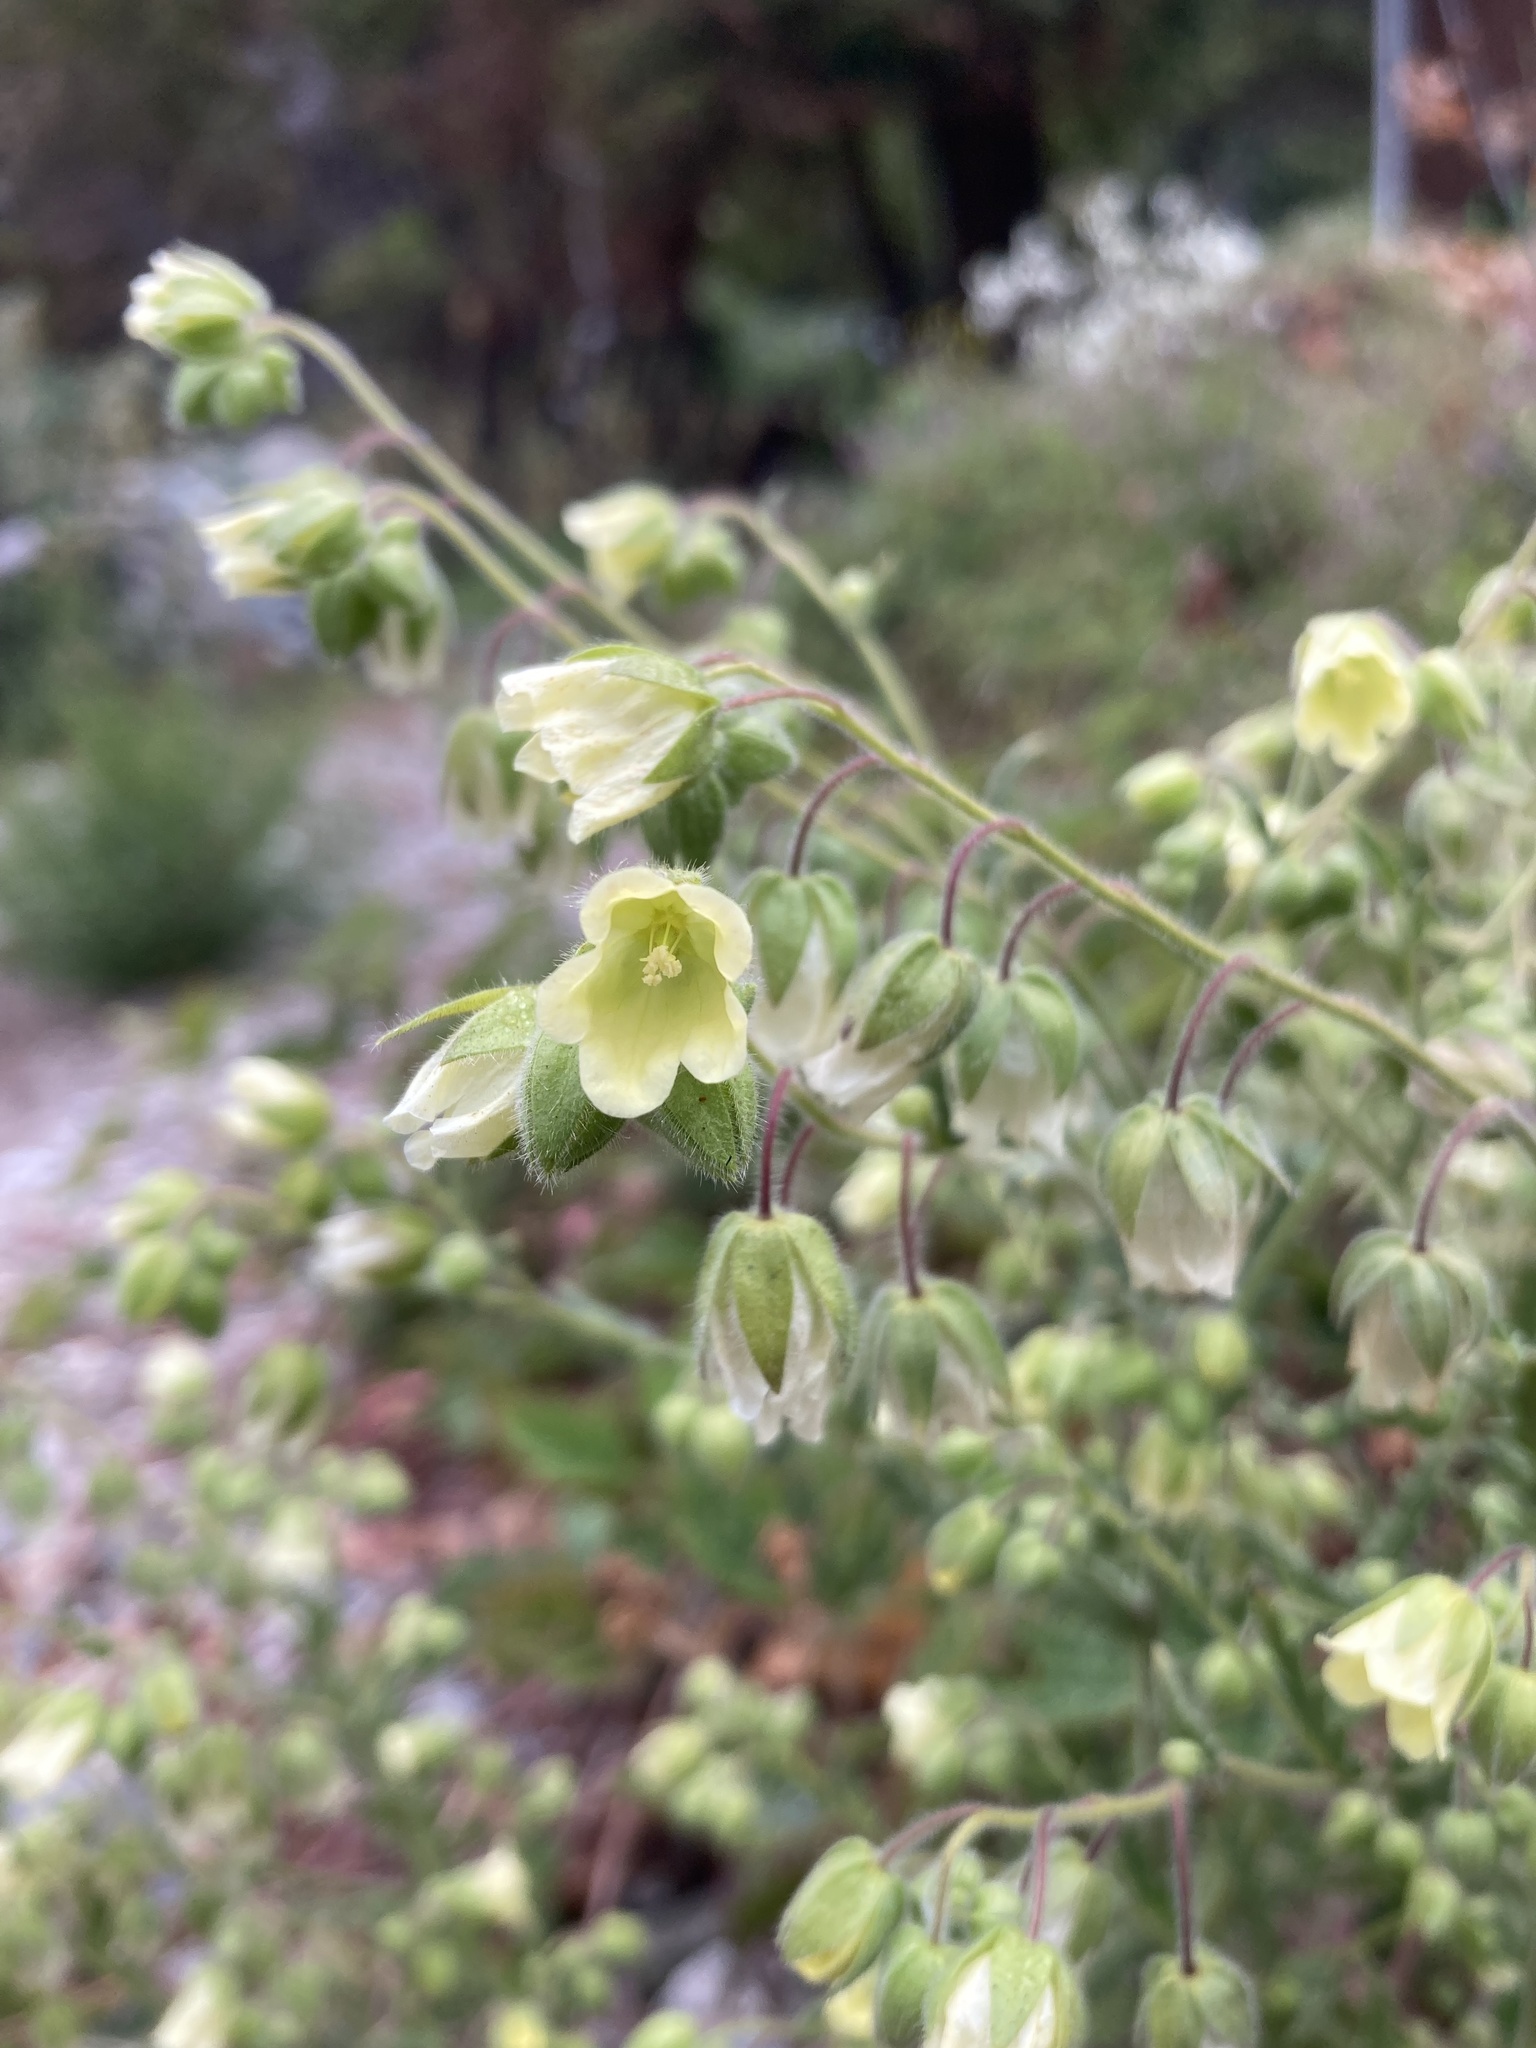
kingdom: Plantae
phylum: Tracheophyta
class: Magnoliopsida
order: Boraginales
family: Hydrophyllaceae
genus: Emmenanthe
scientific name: Emmenanthe penduliflora
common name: Whispering-bells
